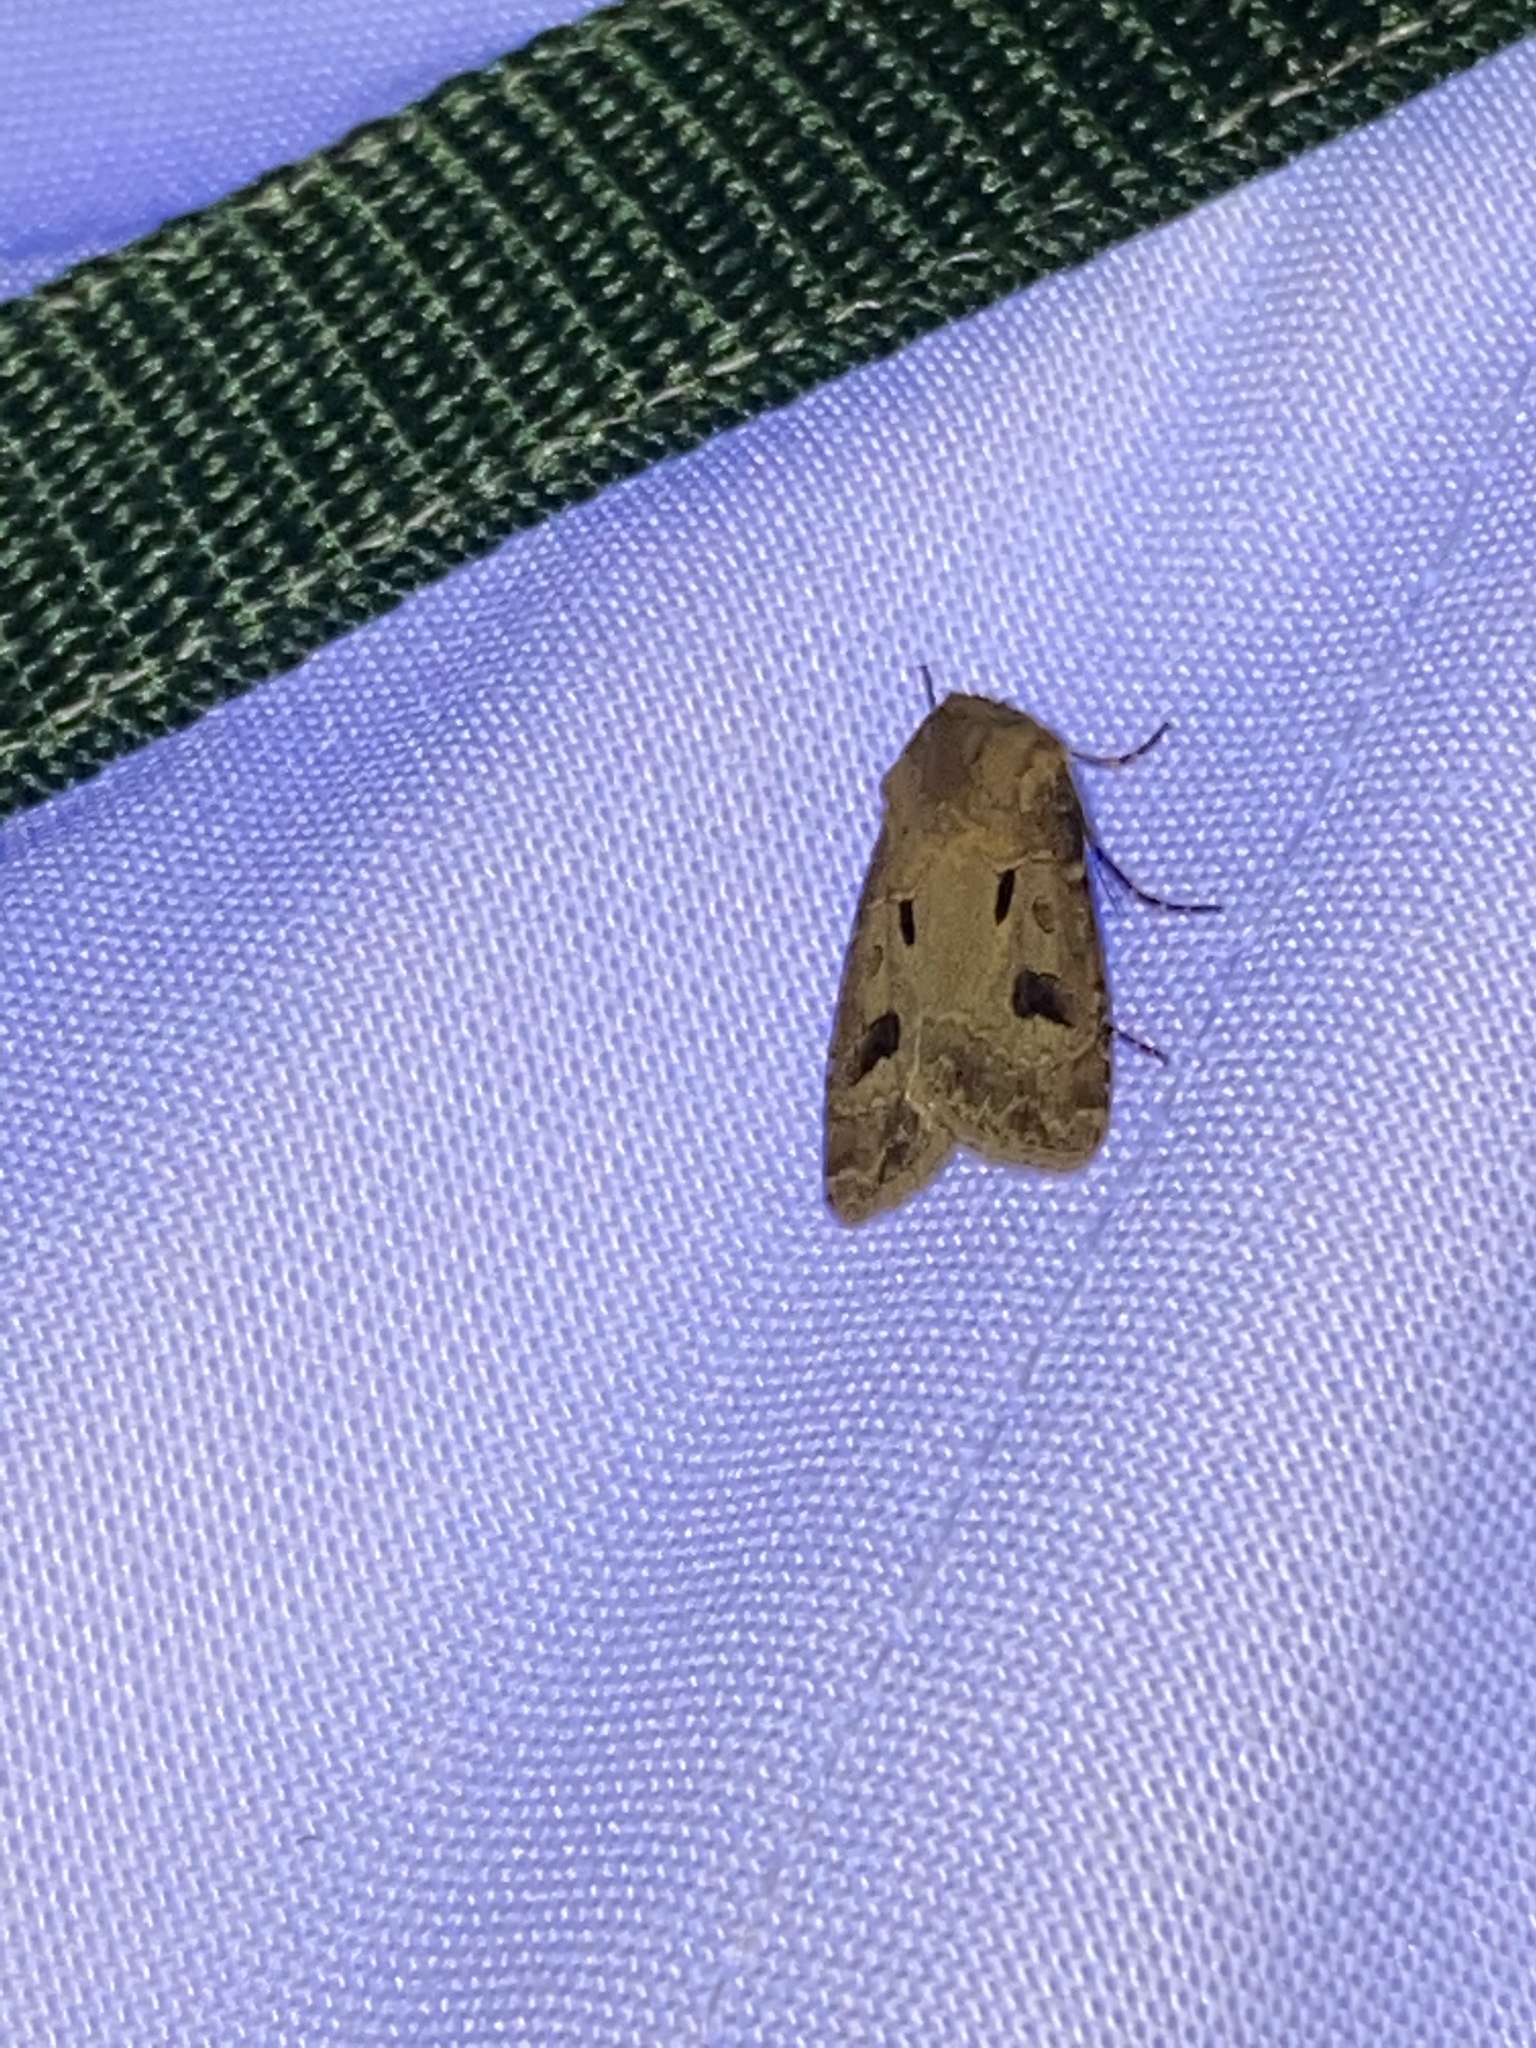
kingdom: Animalia
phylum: Arthropoda
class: Insecta
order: Lepidoptera
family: Noctuidae
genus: Agrotis
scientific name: Agrotis exclamationis
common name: Heart and dart
